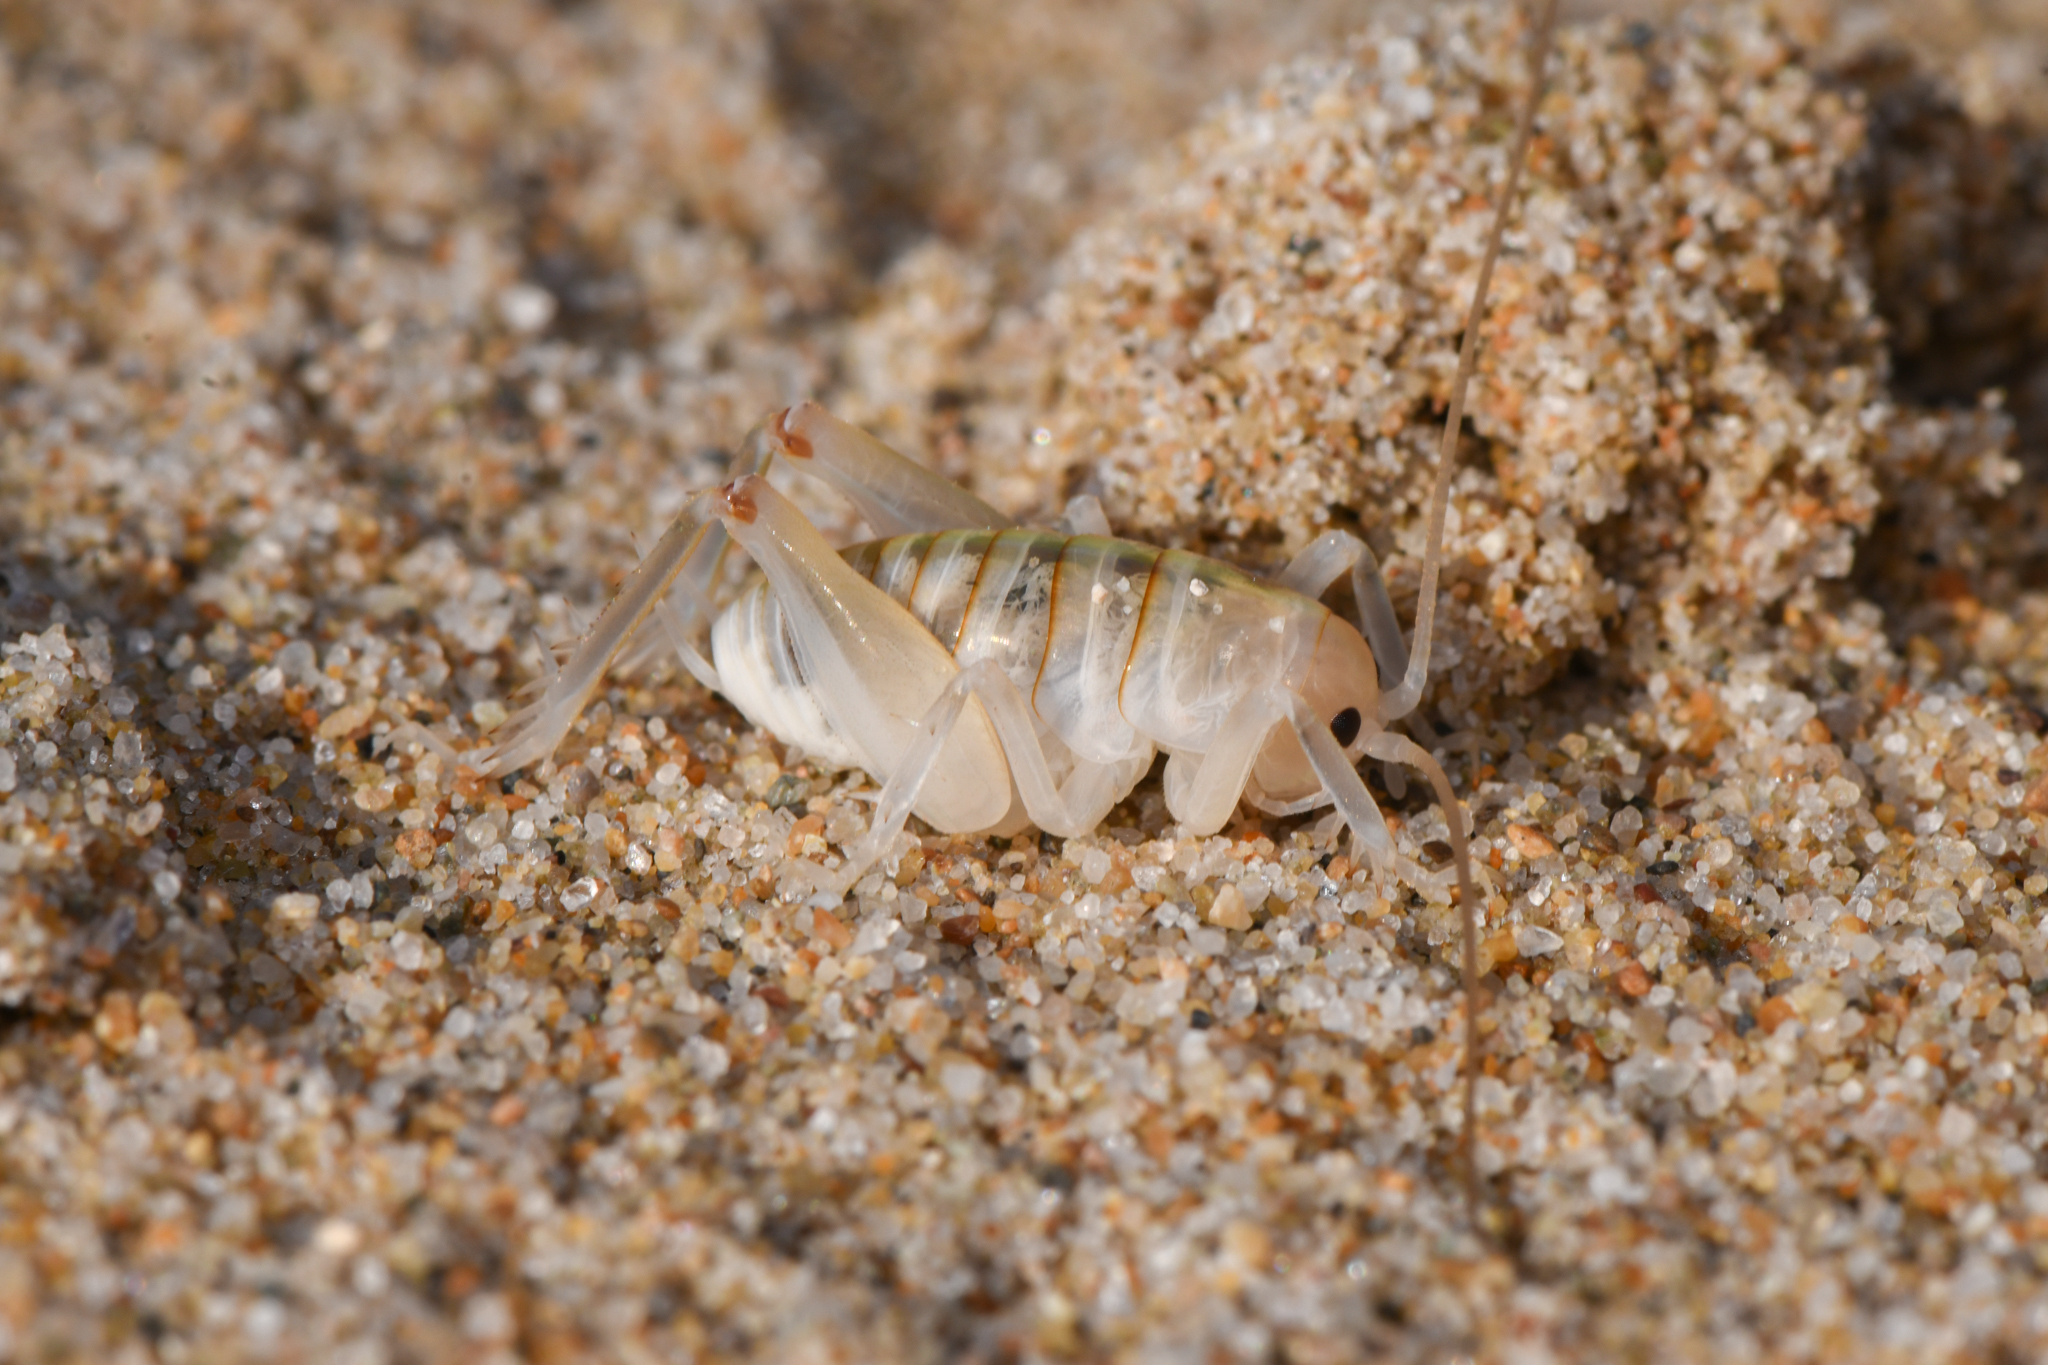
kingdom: Animalia
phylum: Arthropoda
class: Insecta
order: Orthoptera
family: Rhaphidophoridae
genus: Rhachocnemis
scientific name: Rhachocnemis validus
